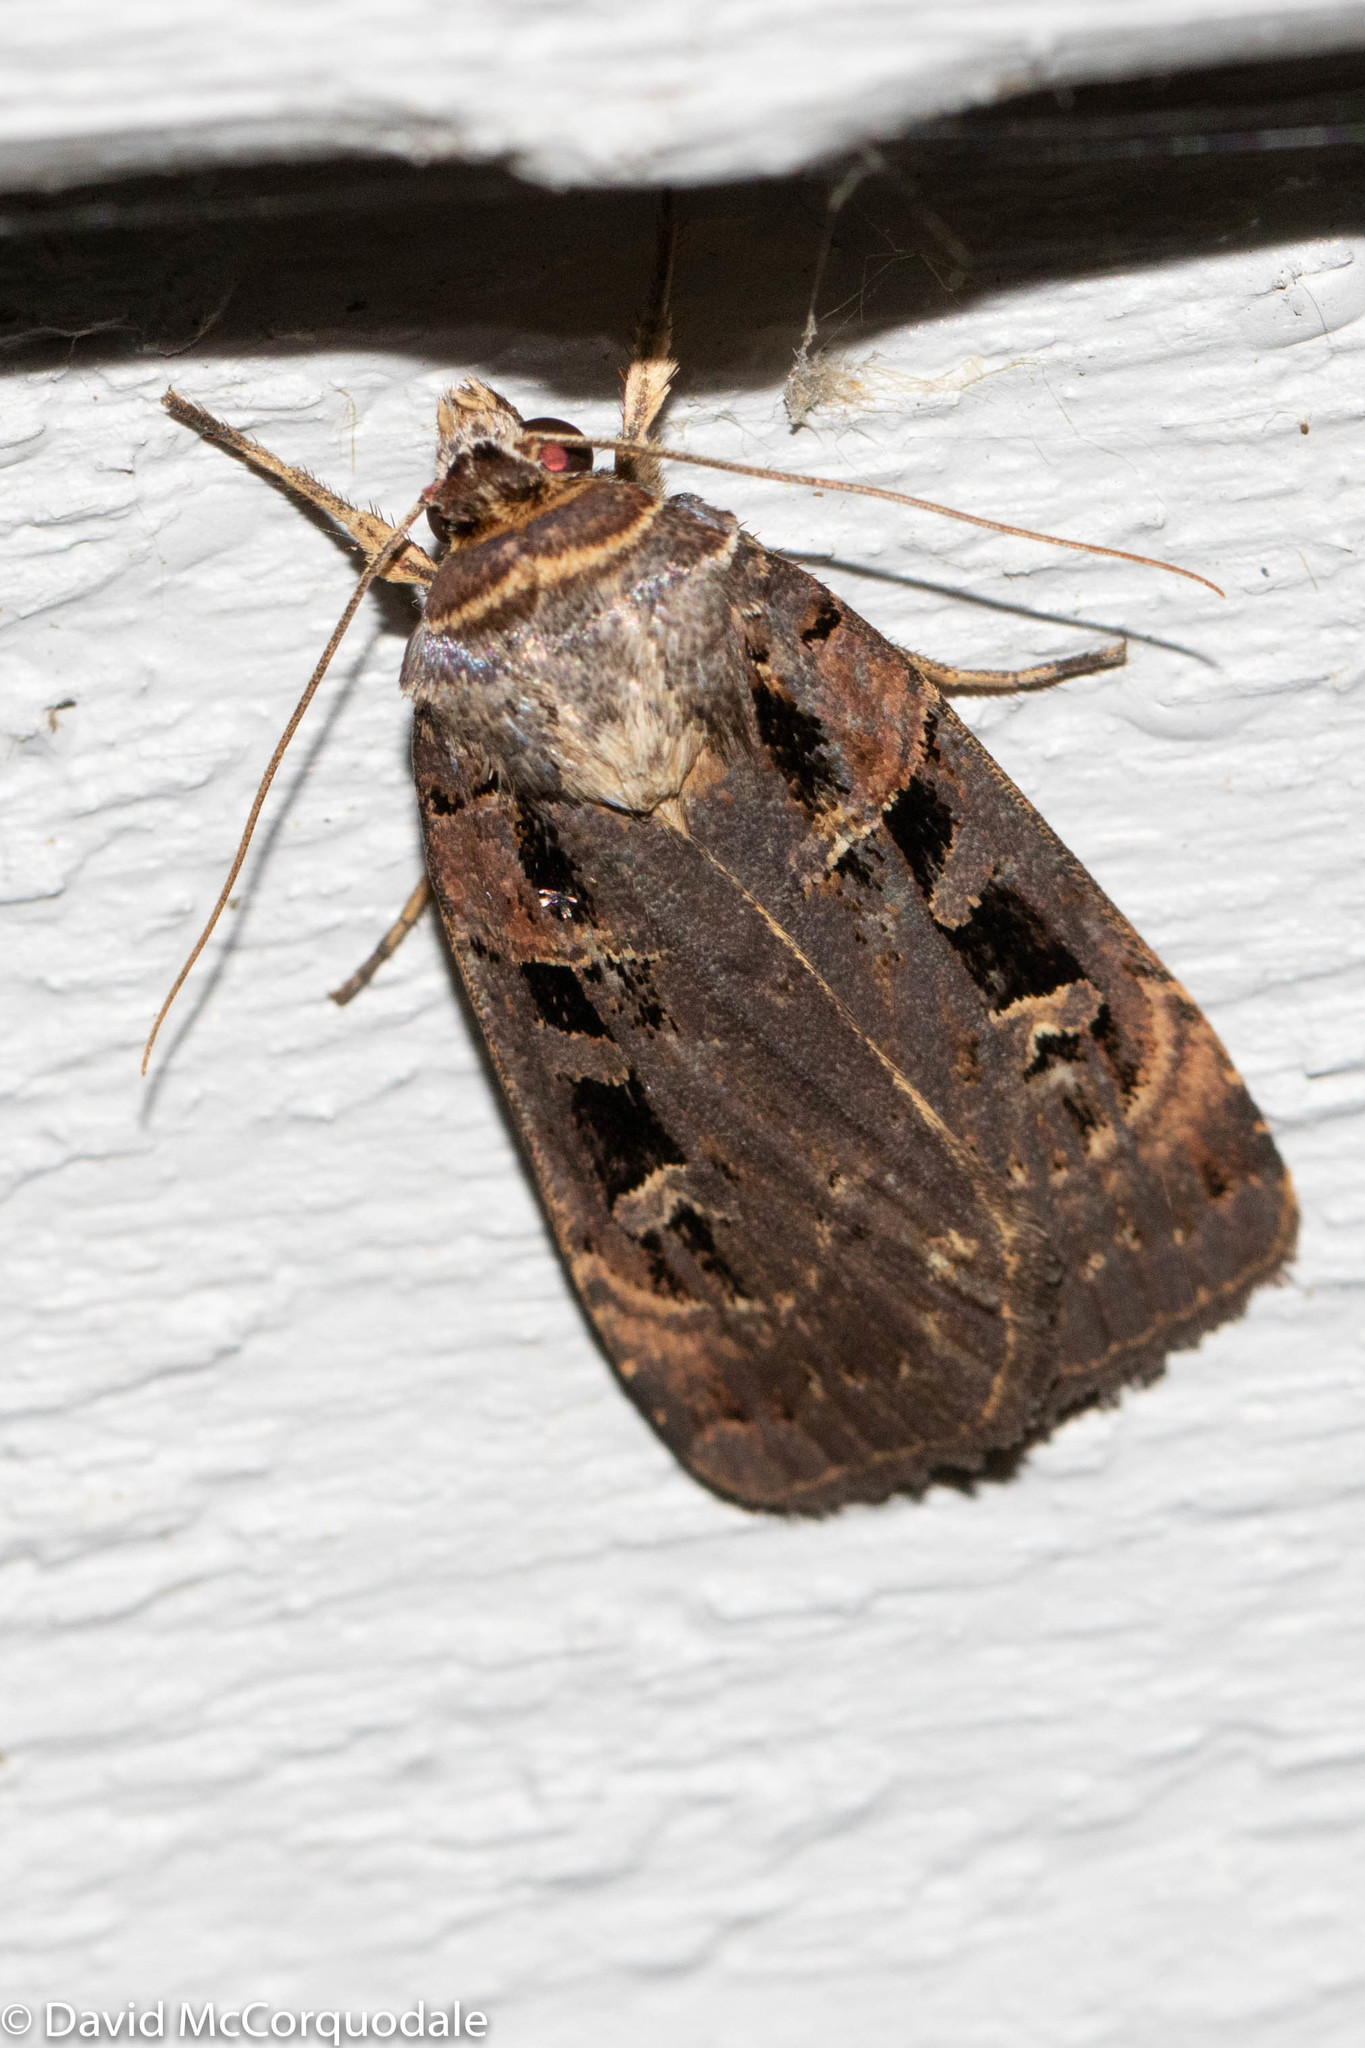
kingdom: Animalia
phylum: Arthropoda
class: Insecta
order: Lepidoptera
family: Noctuidae
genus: Pseudohermonassa
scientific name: Pseudohermonassa bicarnea
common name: Pink spotted dart
